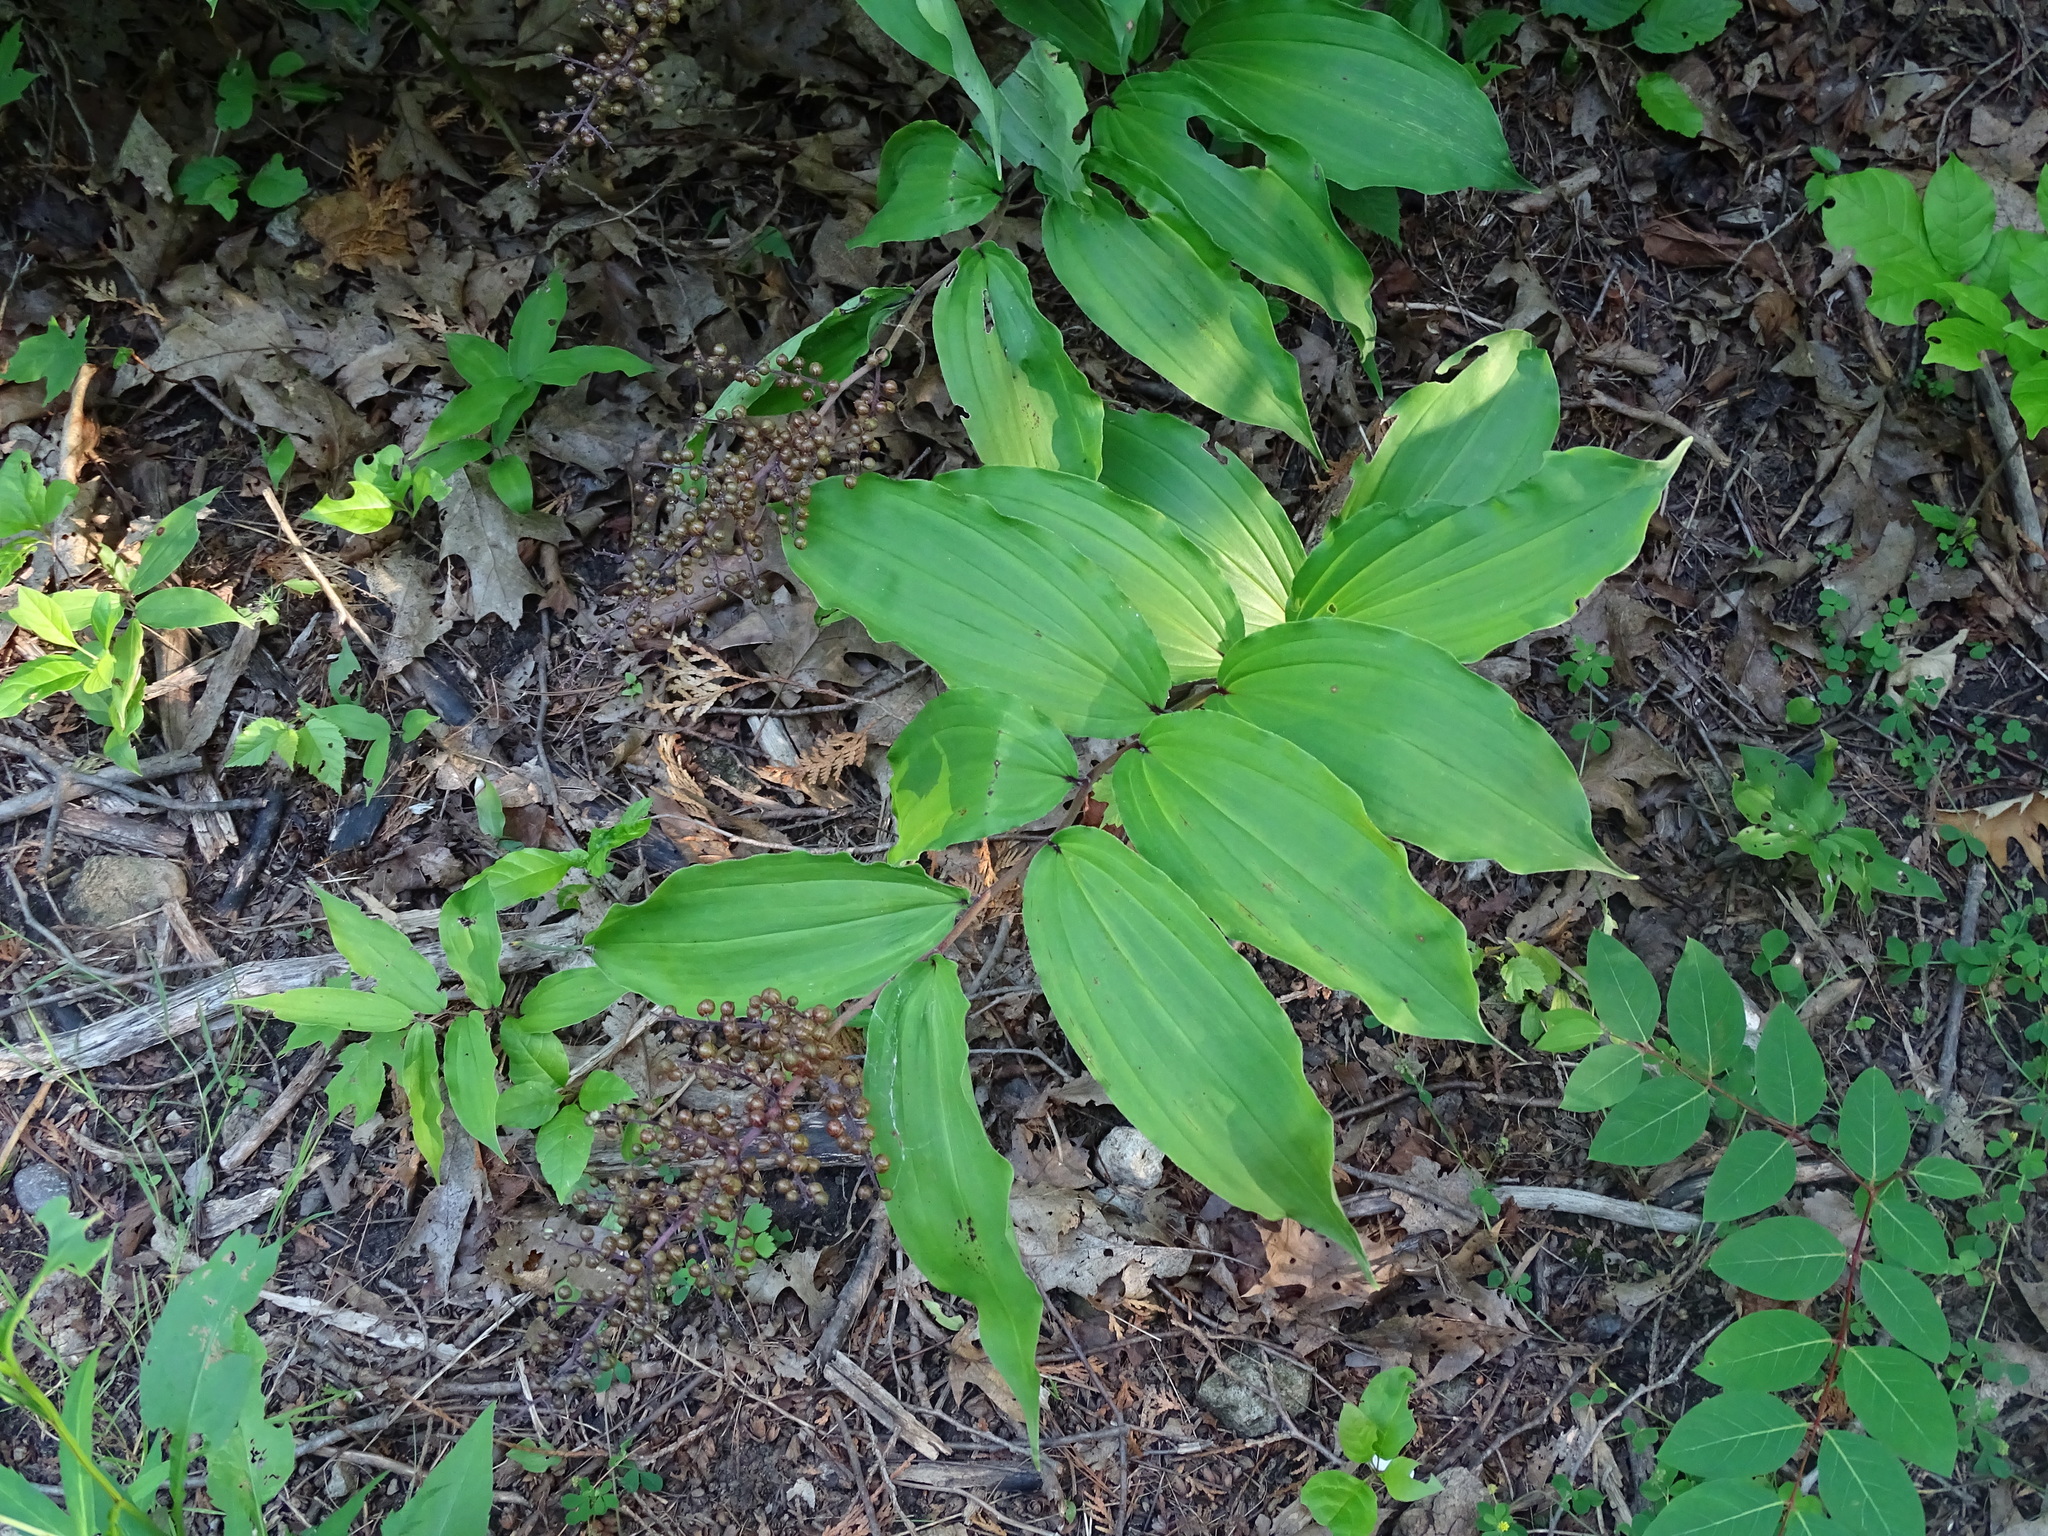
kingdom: Plantae
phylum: Tracheophyta
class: Liliopsida
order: Asparagales
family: Asparagaceae
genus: Maianthemum
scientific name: Maianthemum racemosum
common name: False spikenard
